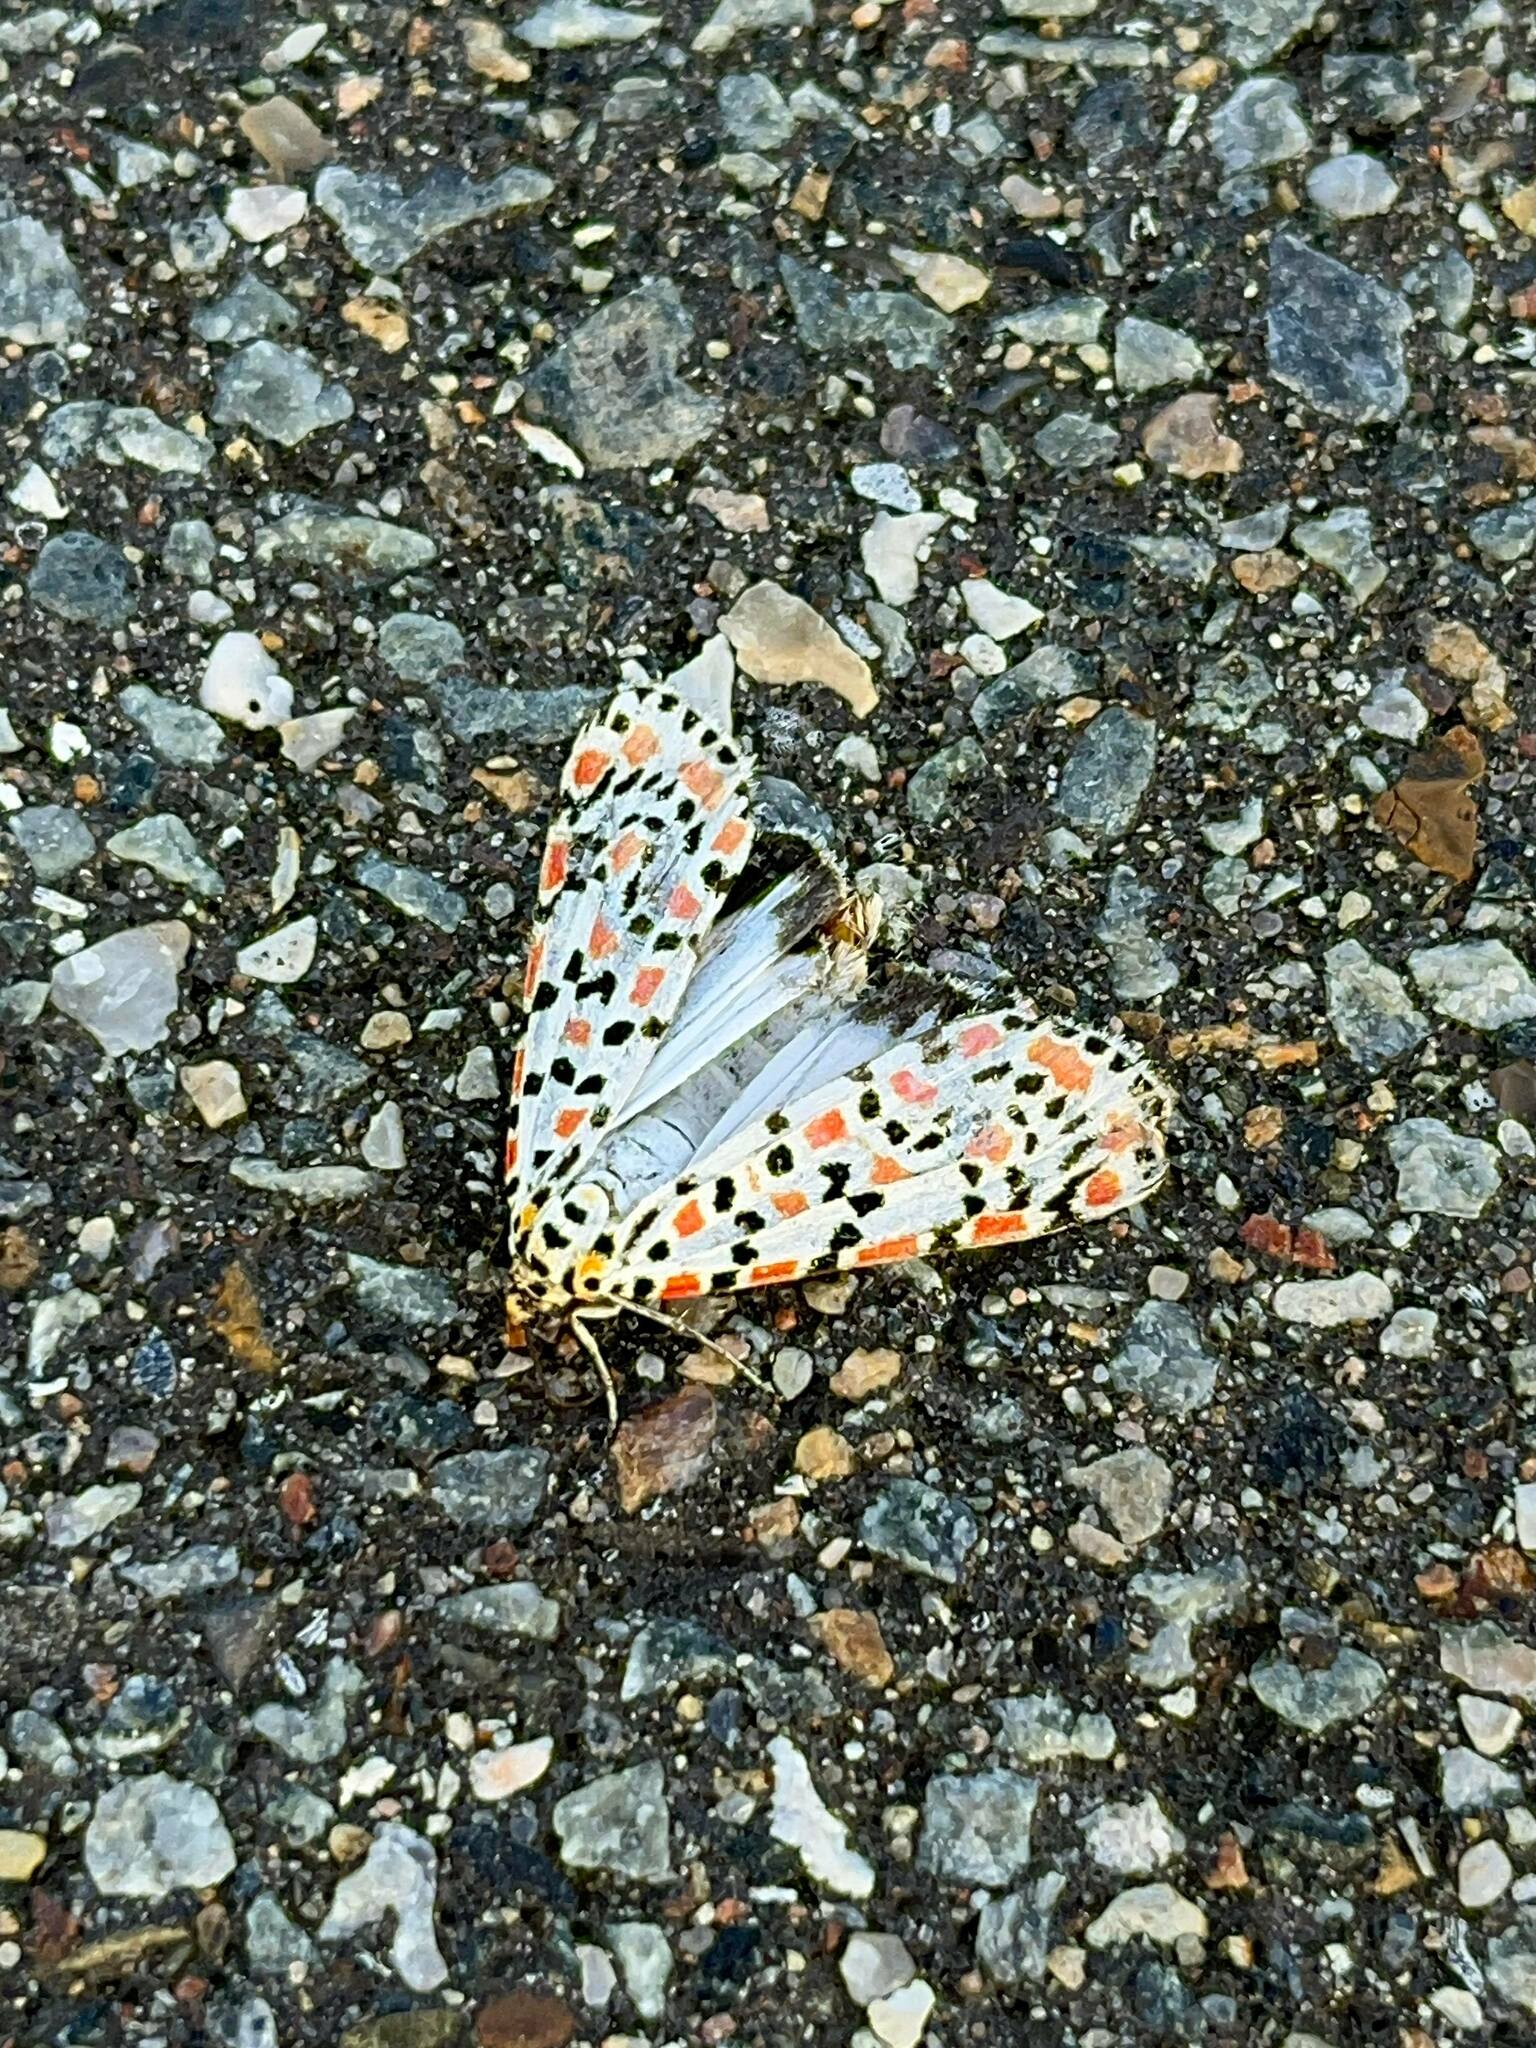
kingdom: Animalia
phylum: Arthropoda
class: Insecta
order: Lepidoptera
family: Erebidae
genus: Utetheisa
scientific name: Utetheisa pulchella
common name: Crimson speckled
